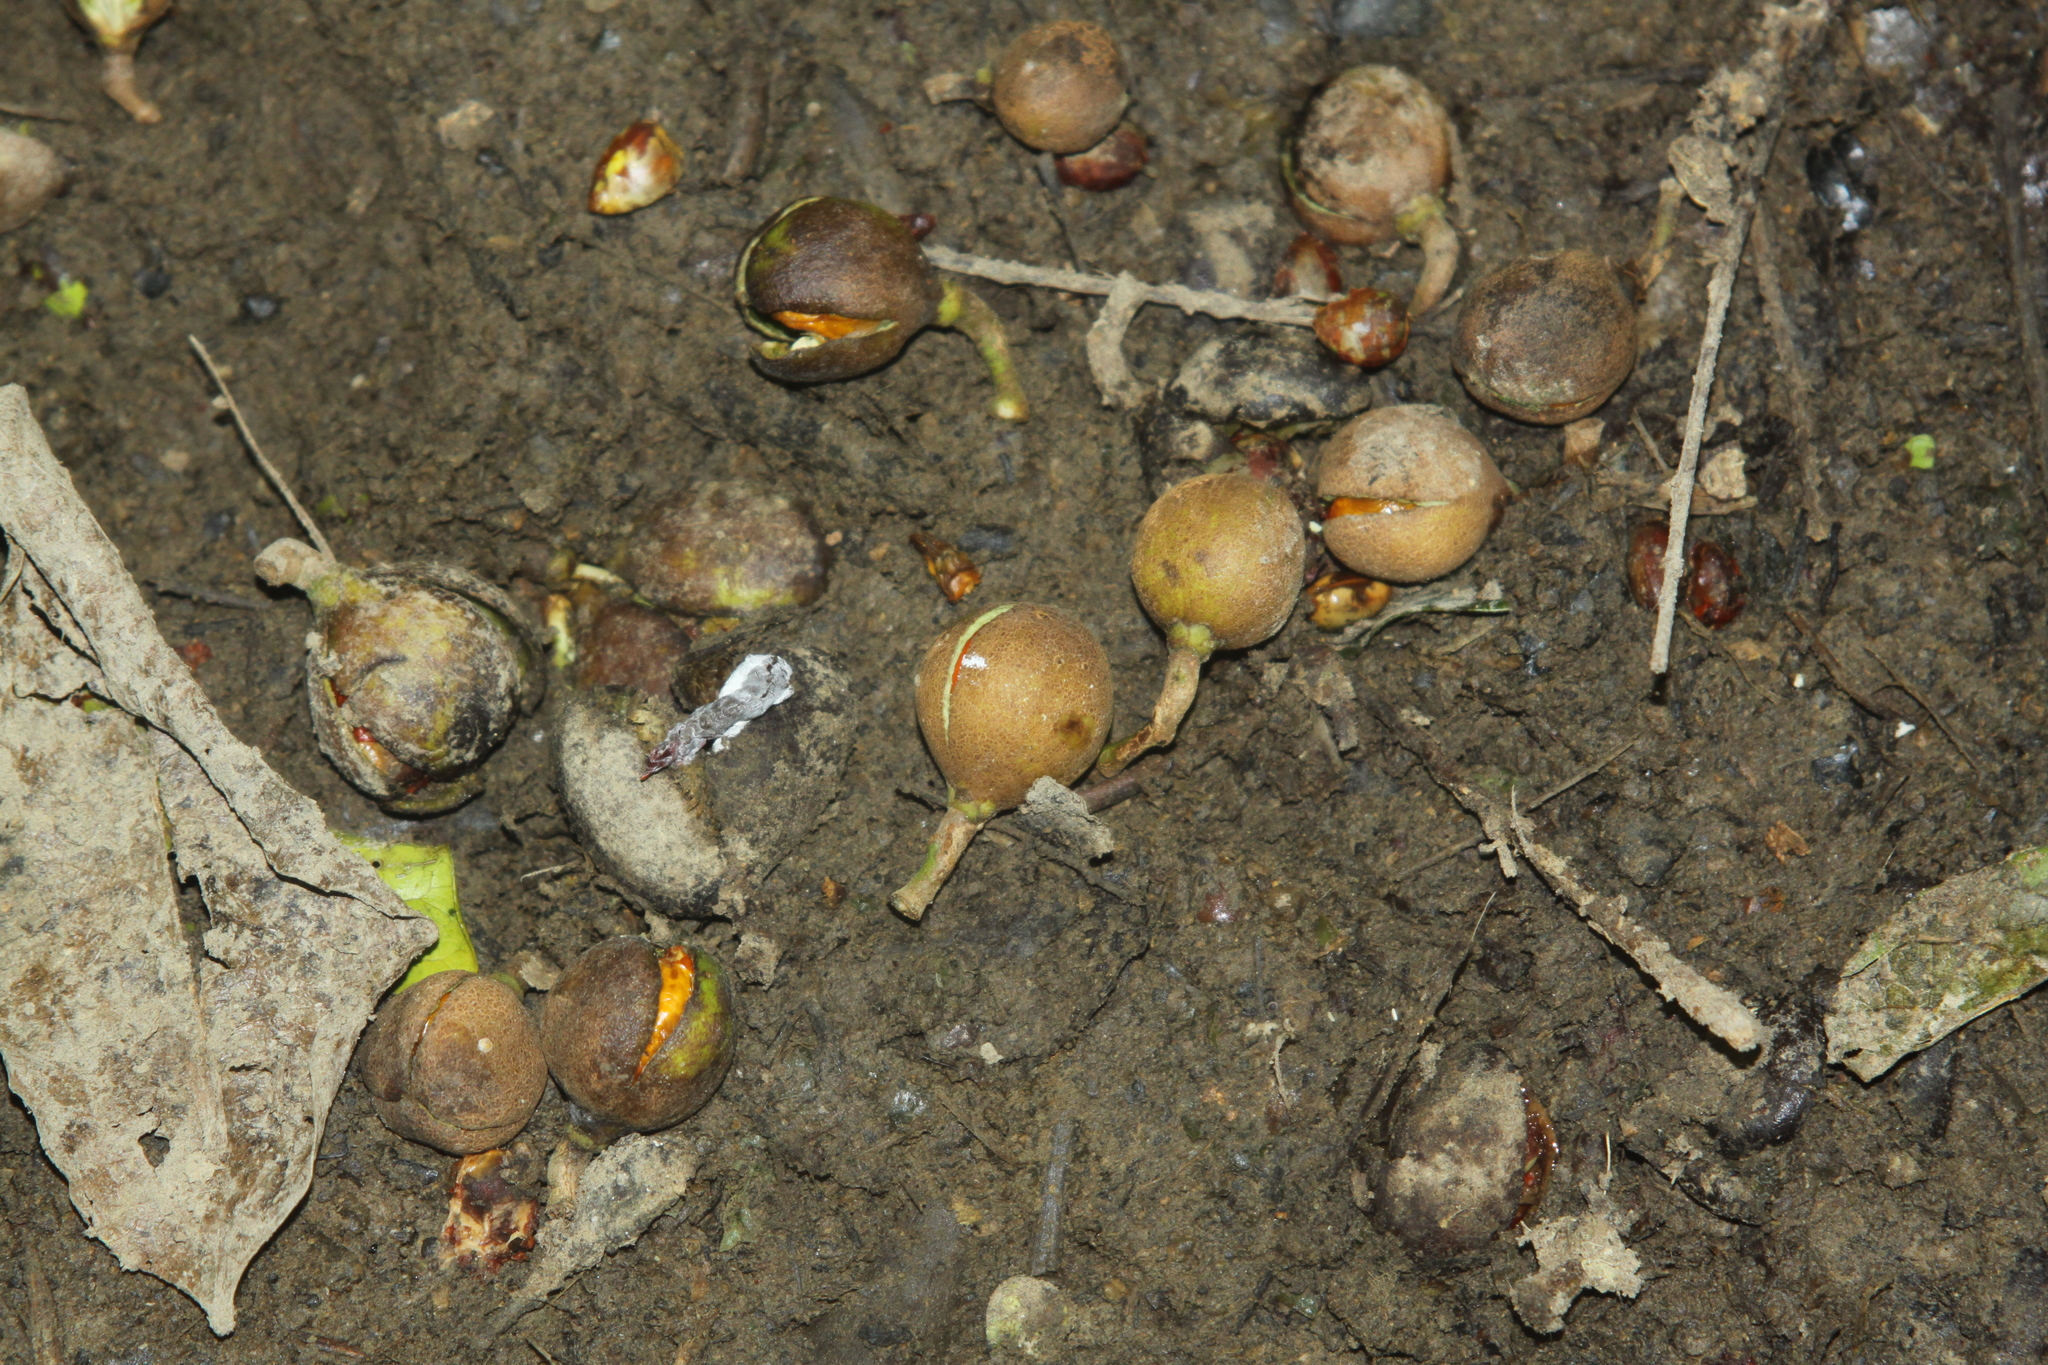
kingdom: Plantae
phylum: Tracheophyta
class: Magnoliopsida
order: Sapindales
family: Meliaceae
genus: Didymocheton
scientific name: Didymocheton spectabilis
